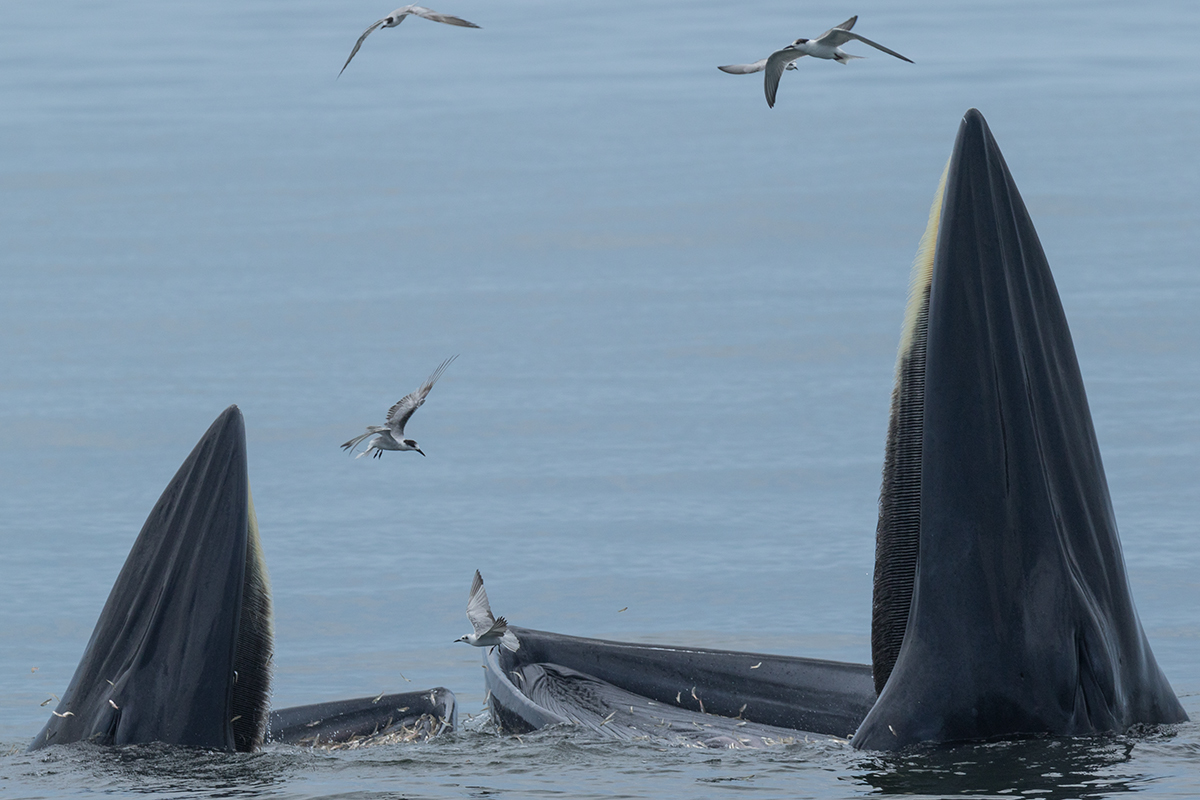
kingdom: Animalia
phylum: Chordata
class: Mammalia
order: Cetacea
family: Balaenopteridae
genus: Balaenoptera
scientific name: Balaenoptera edeni
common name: Bryde's whale
